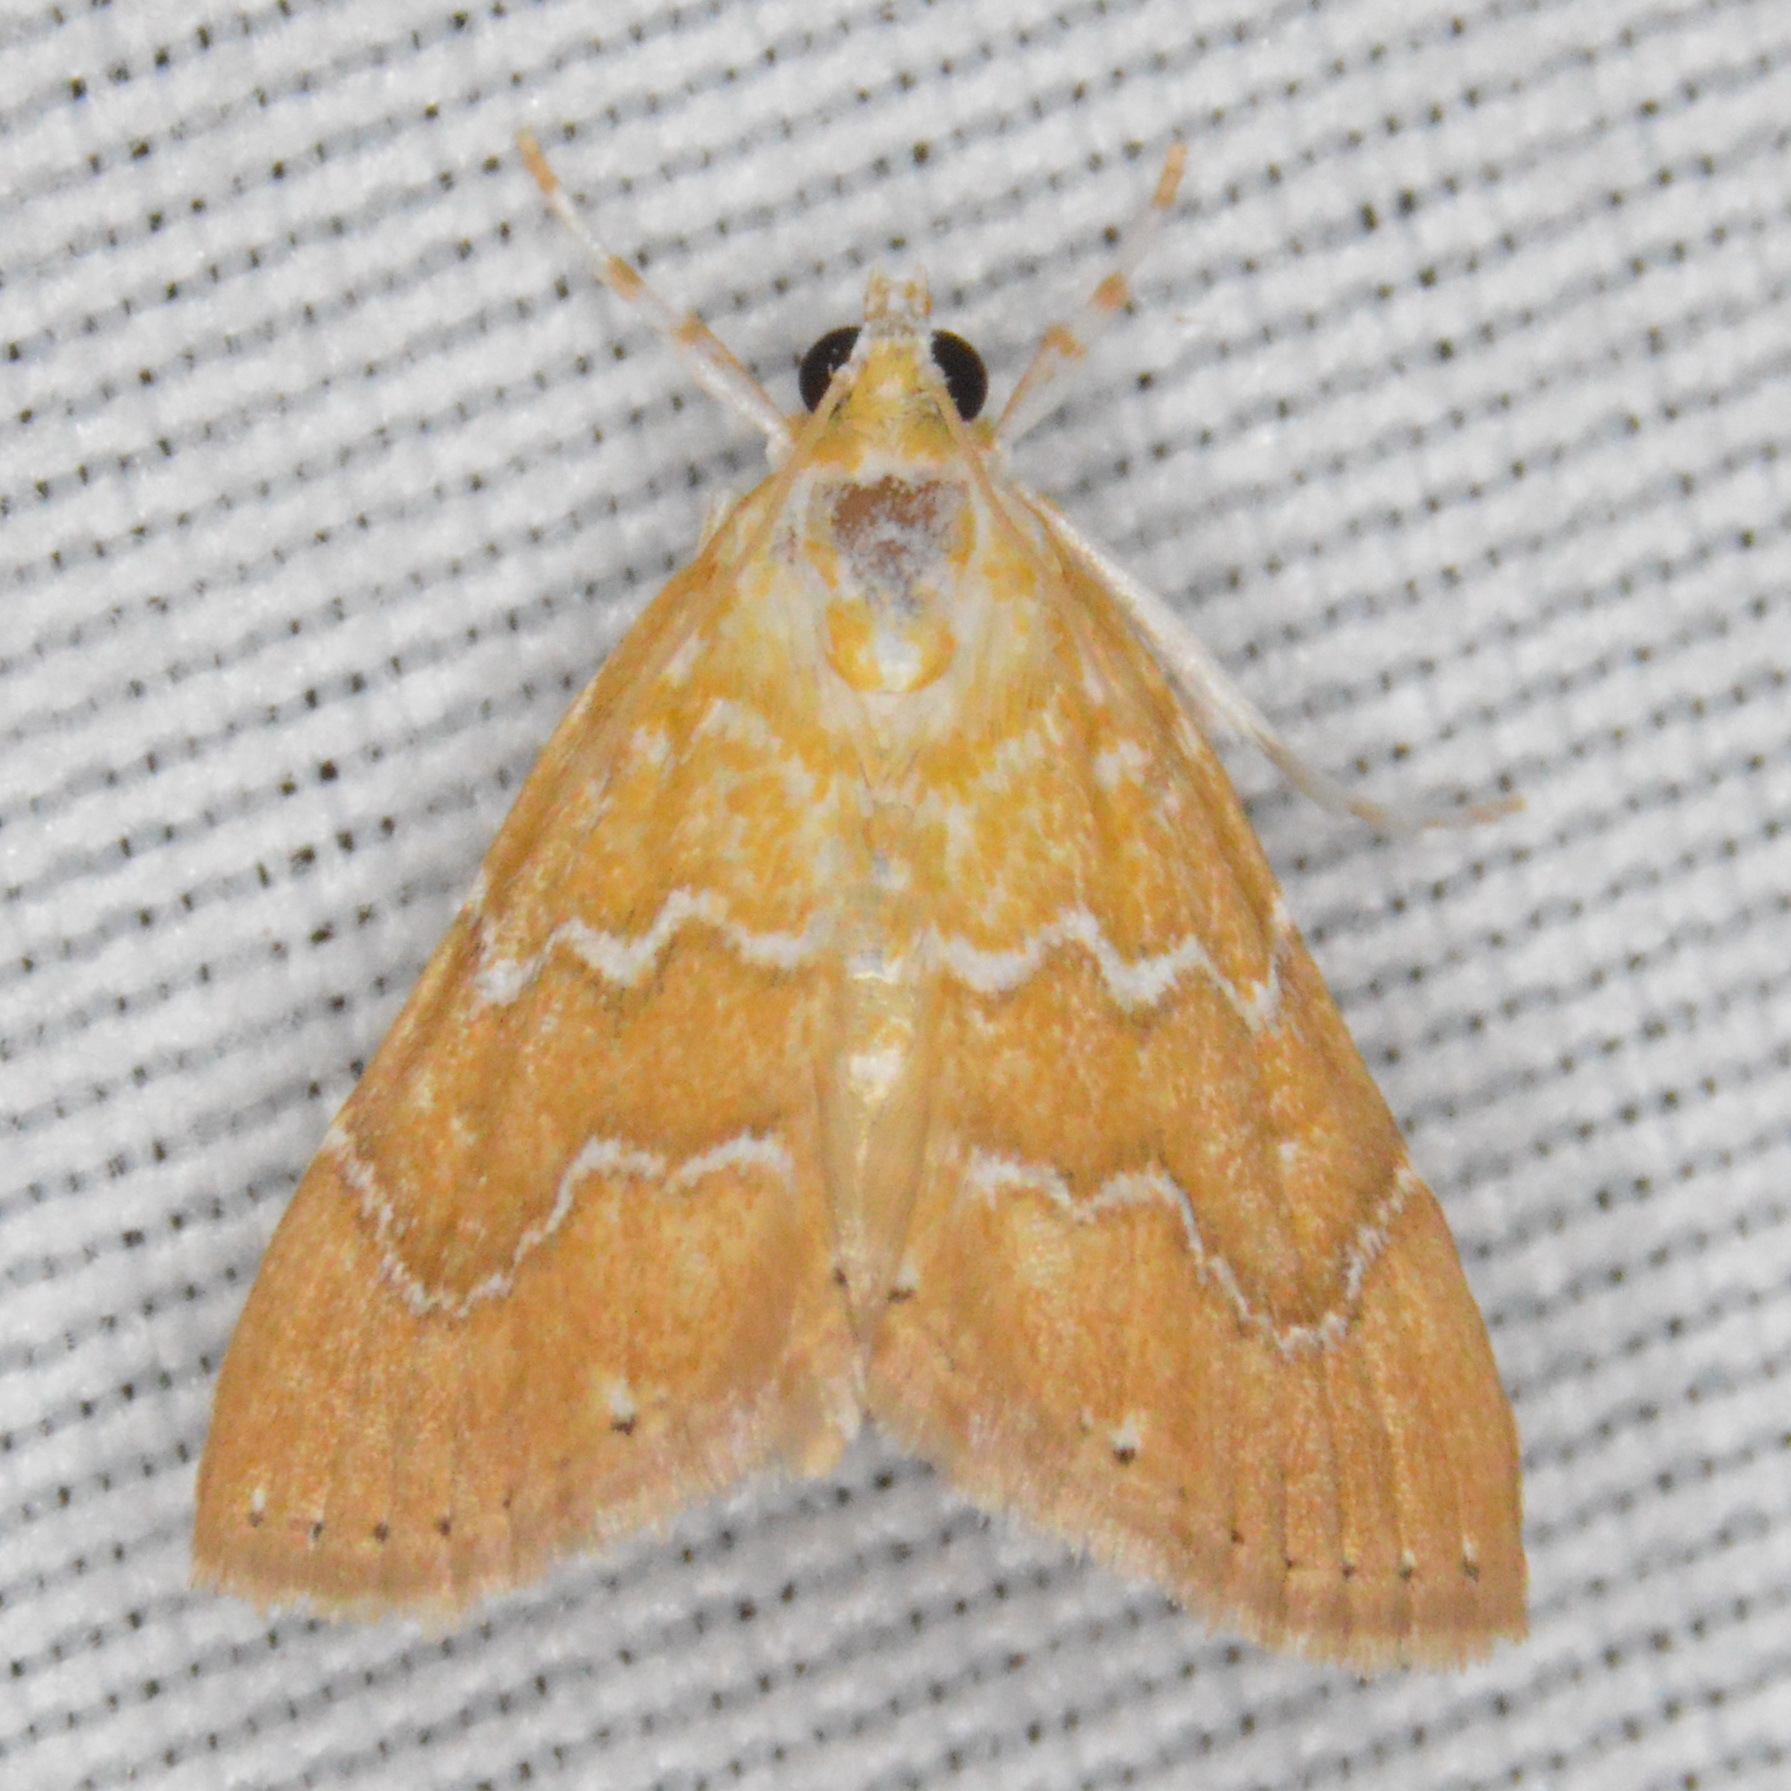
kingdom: Animalia
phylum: Arthropoda
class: Insecta
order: Lepidoptera
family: Crambidae
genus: Glaphyria
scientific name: Glaphyria sesquistrialis
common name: White-roped glaphyria
